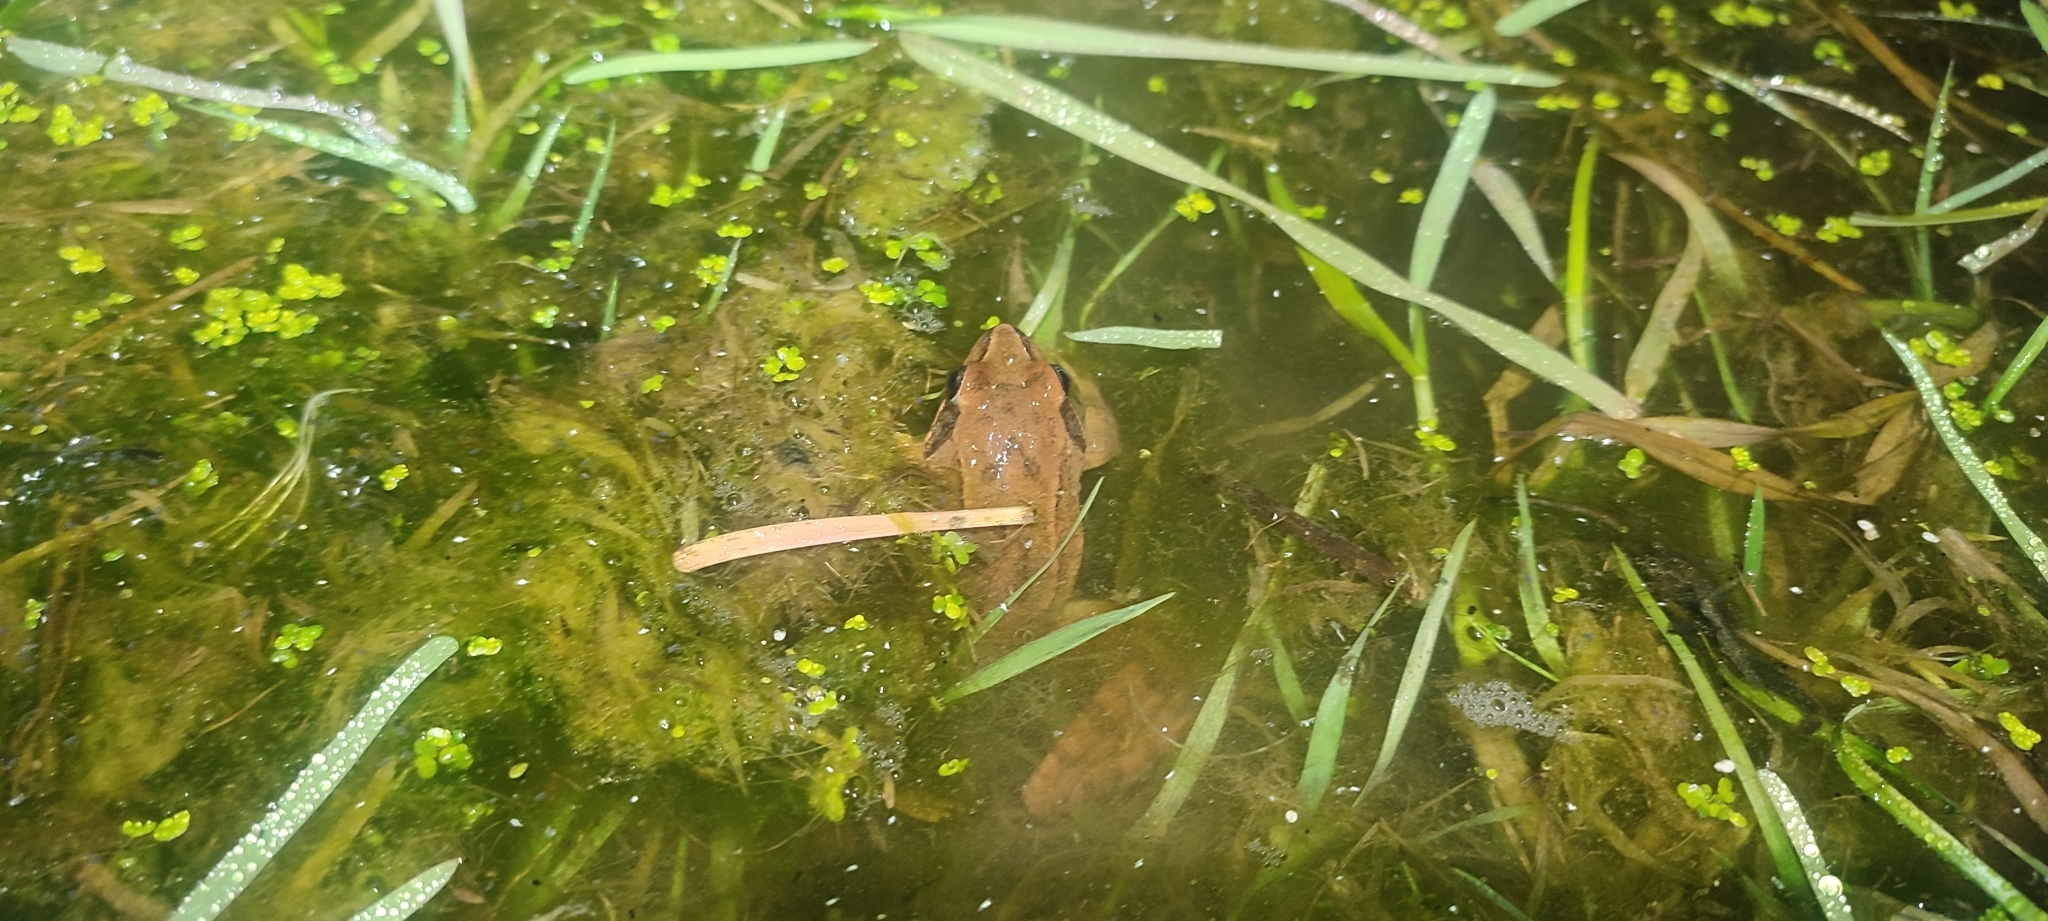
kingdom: Animalia
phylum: Chordata
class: Amphibia
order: Anura
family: Ranidae
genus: Rana
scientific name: Rana dalmatina
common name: Agile frog
